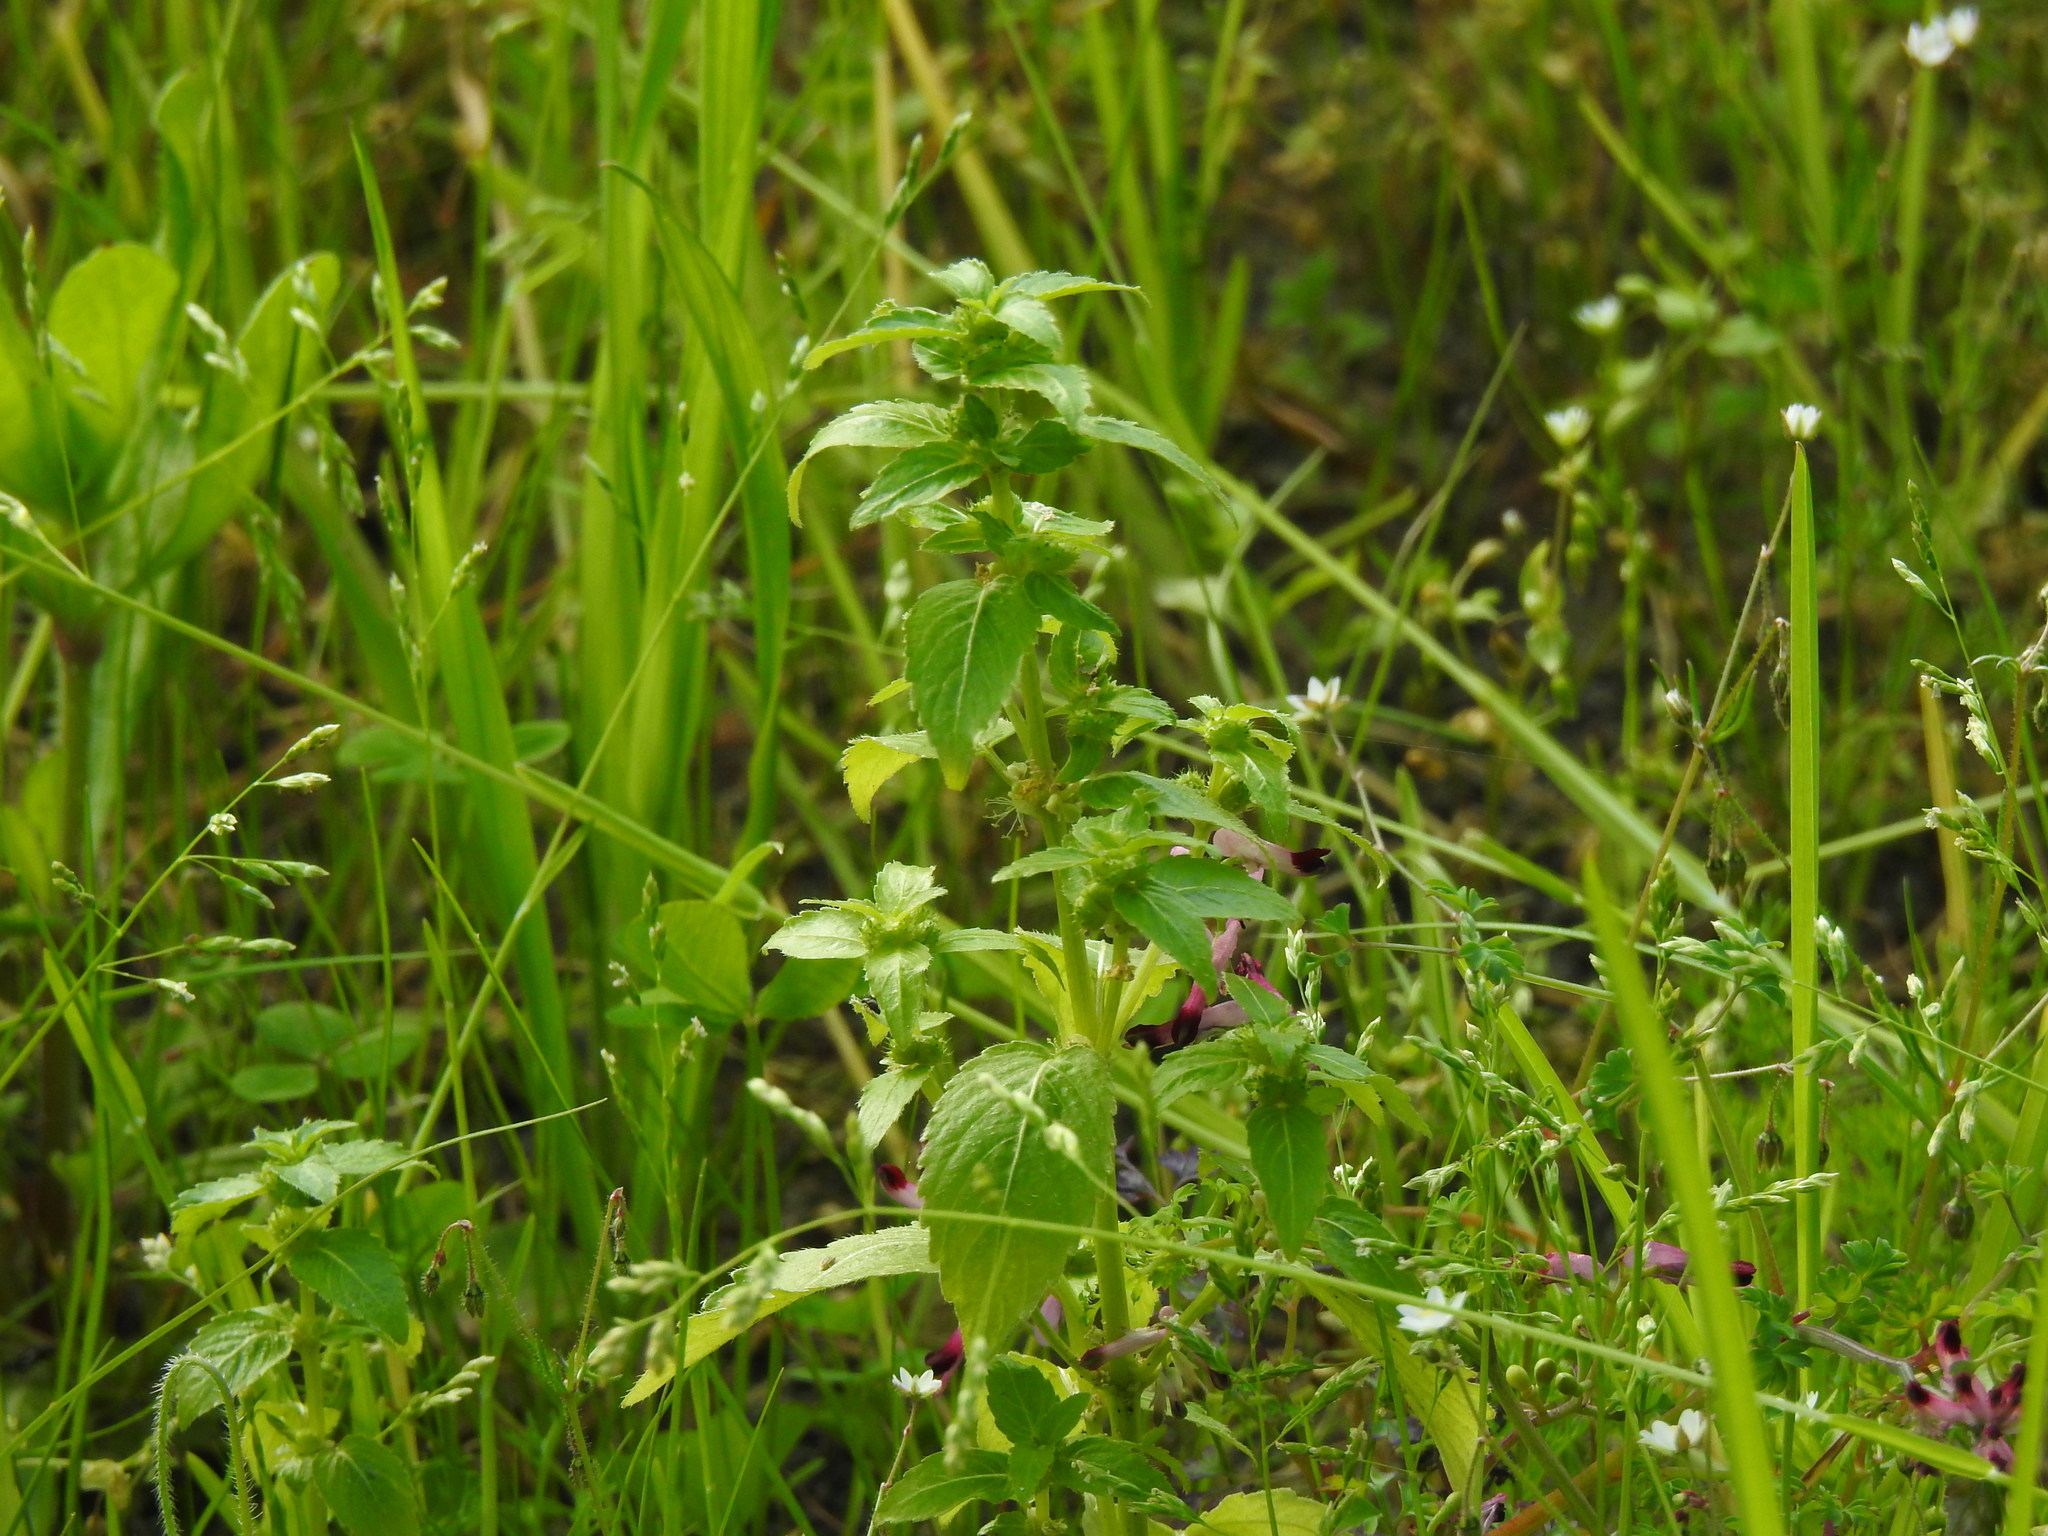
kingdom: Plantae
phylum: Tracheophyta
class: Magnoliopsida
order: Malpighiales
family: Euphorbiaceae
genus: Mercurialis
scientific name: Mercurialis annua
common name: Annual mercury
